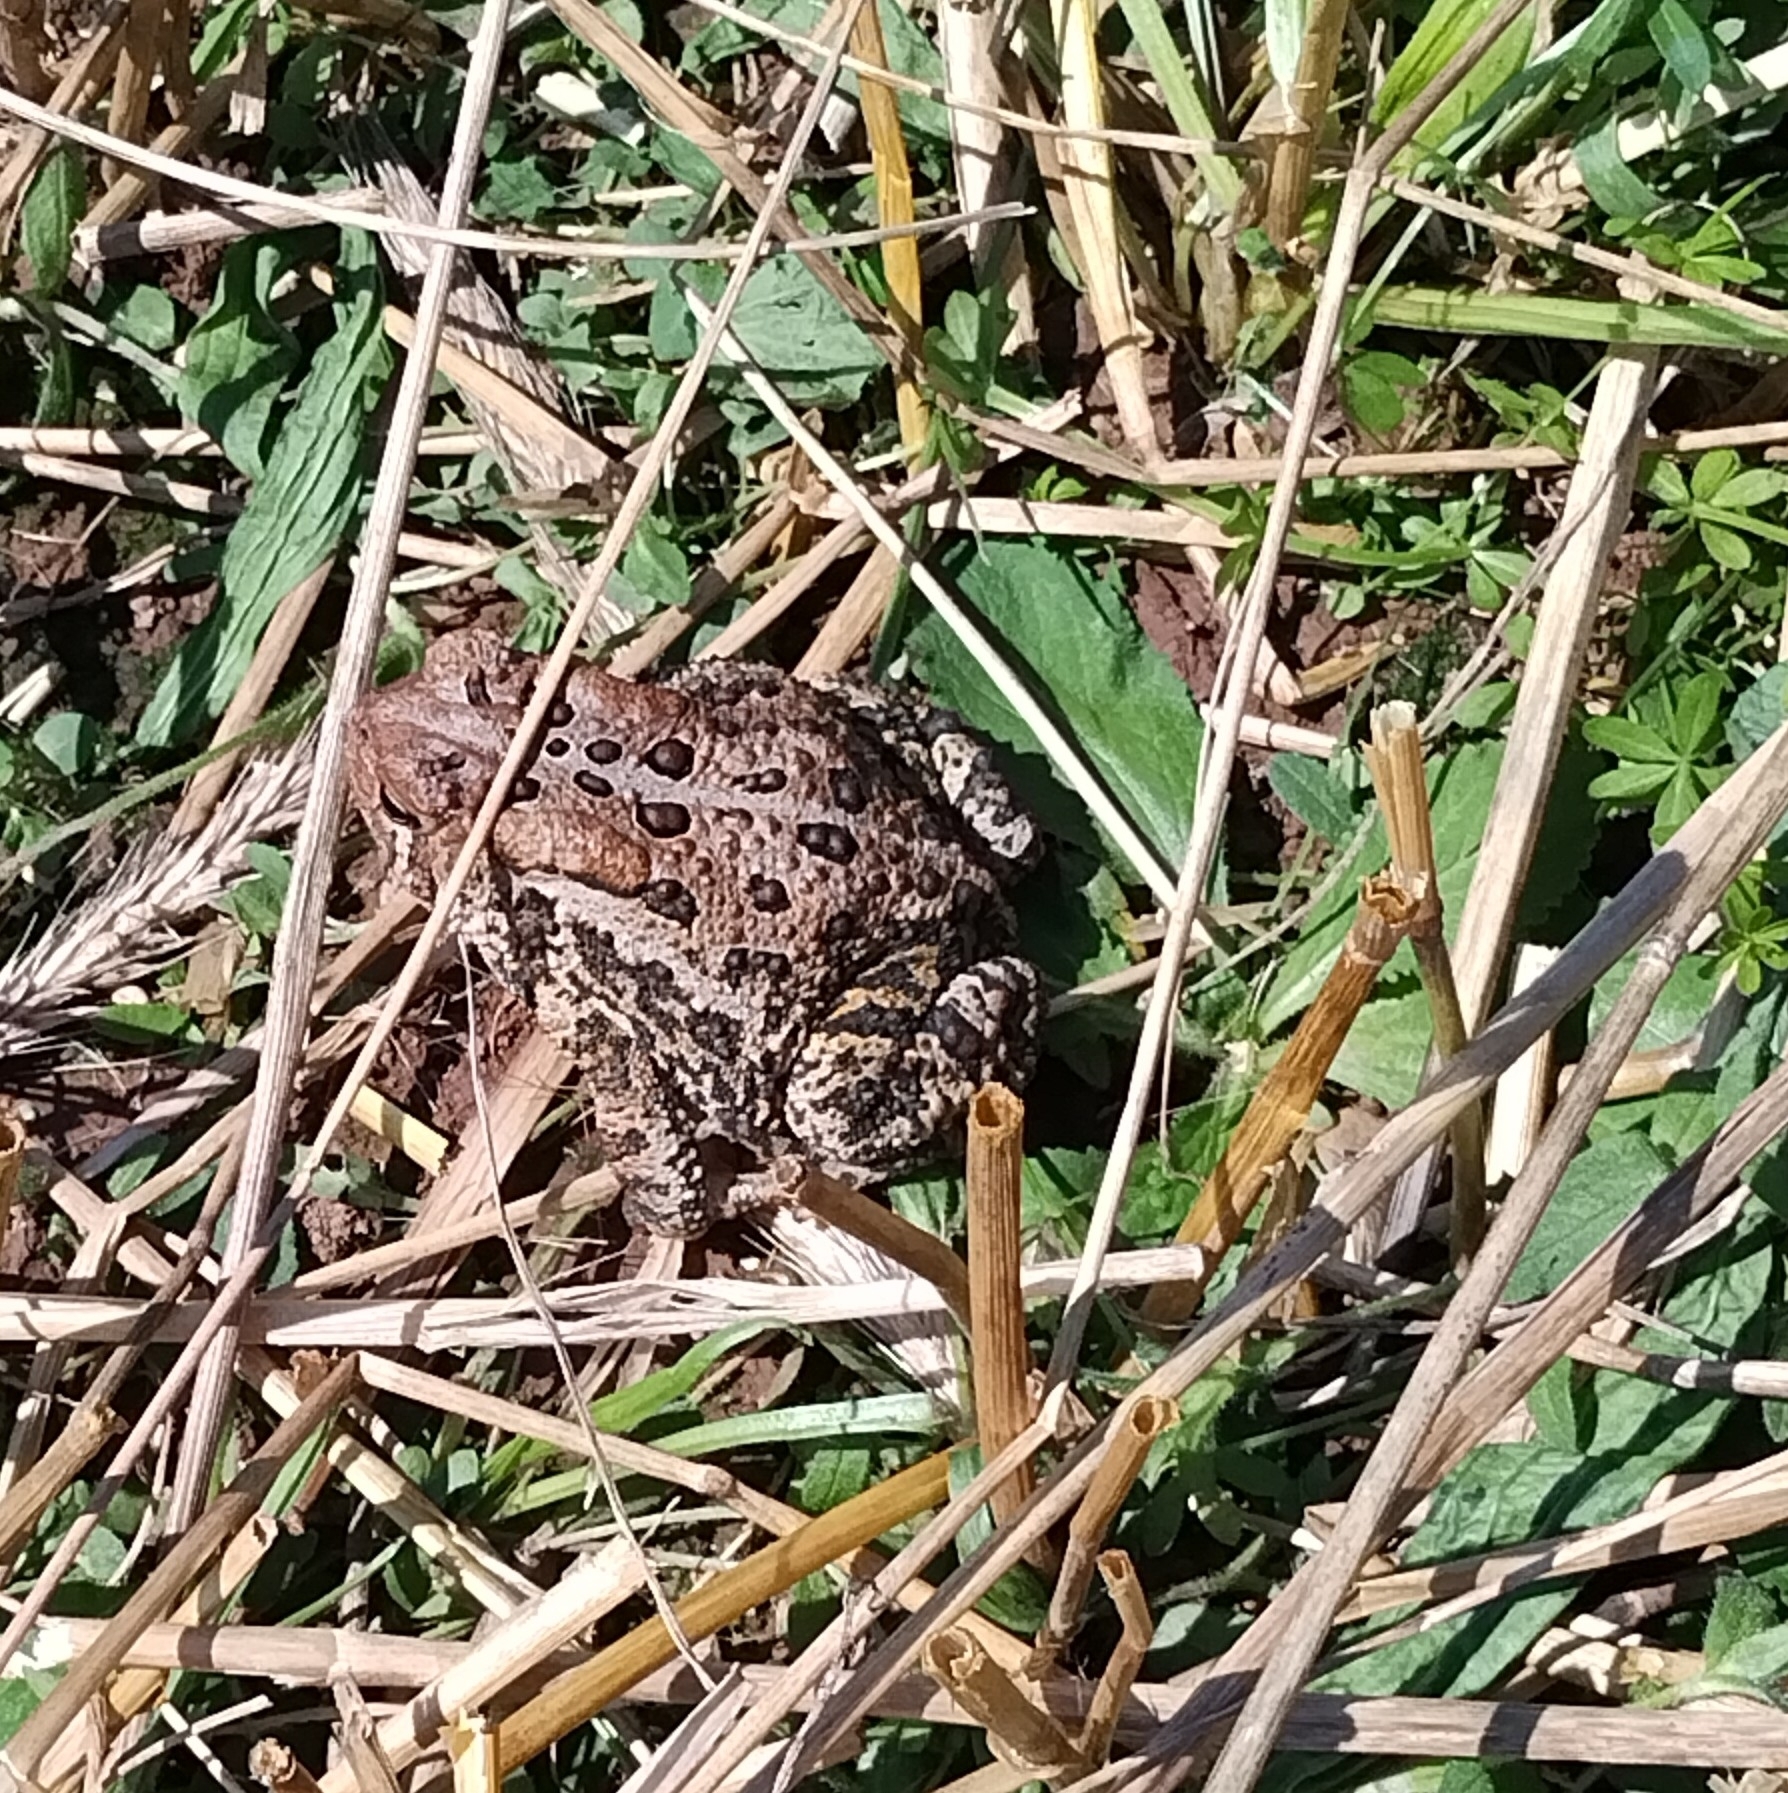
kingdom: Animalia
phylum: Chordata
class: Amphibia
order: Anura
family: Bufonidae
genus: Anaxyrus
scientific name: Anaxyrus americanus
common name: American toad
